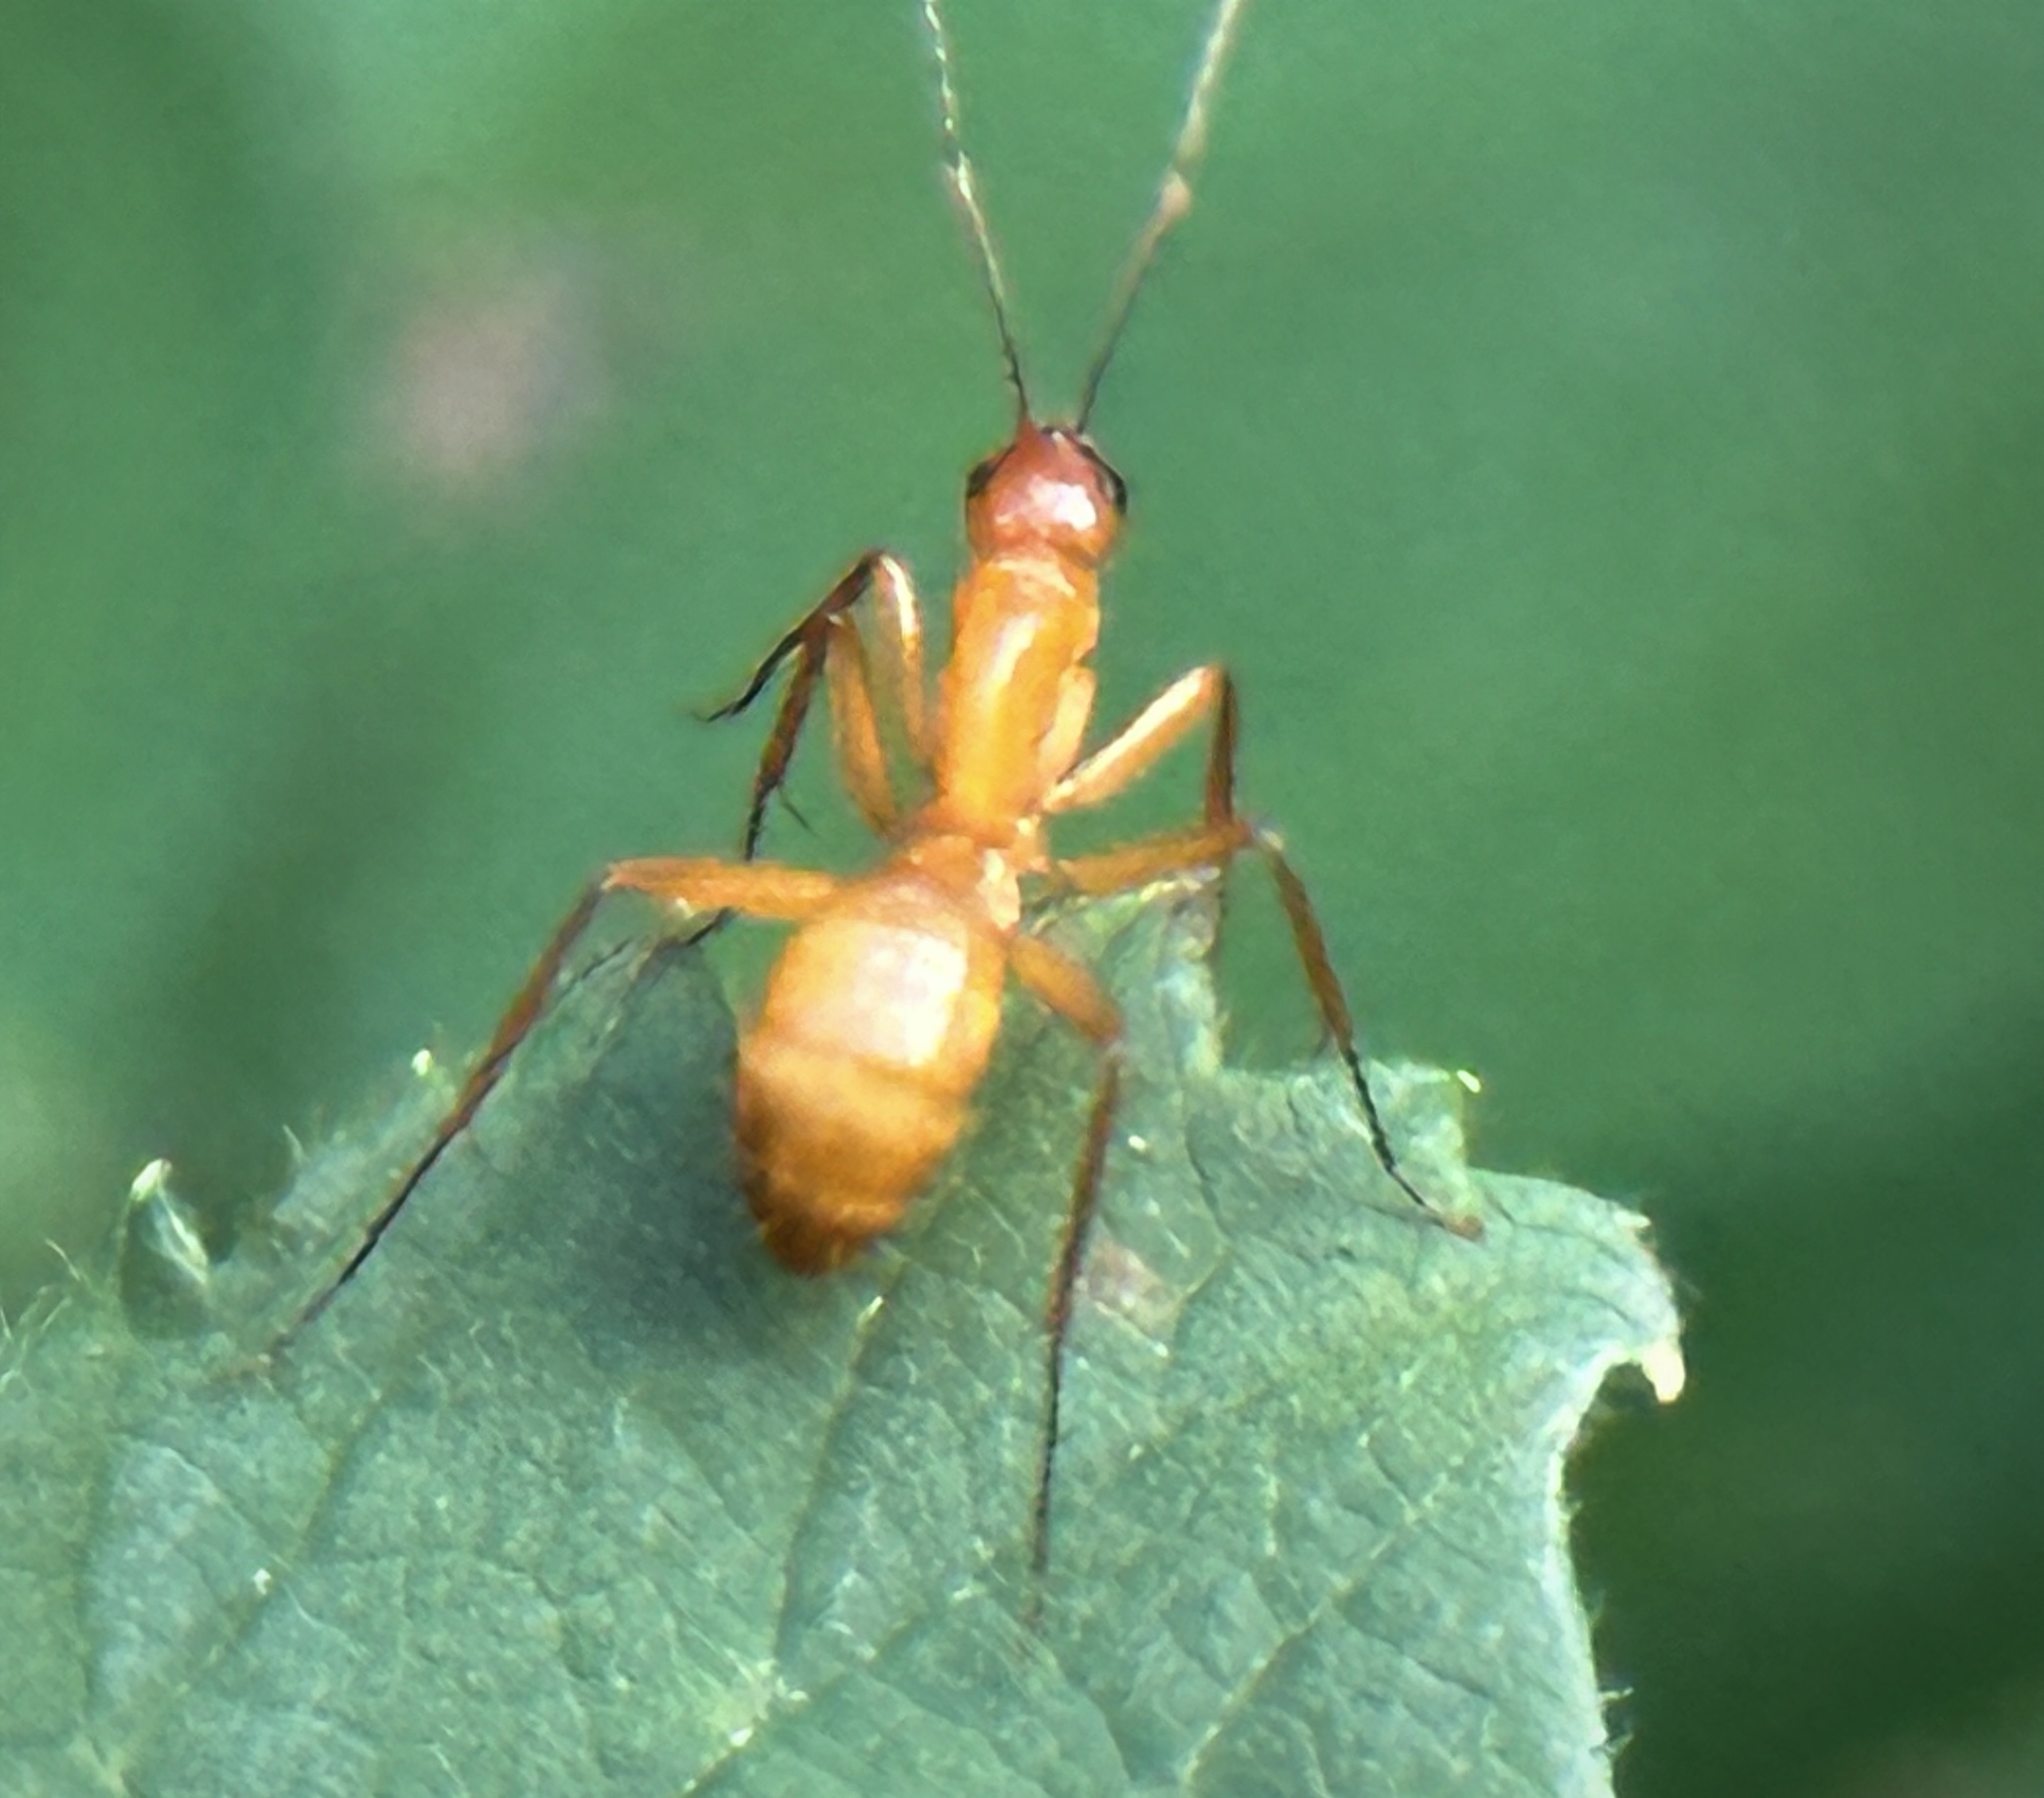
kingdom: Animalia
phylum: Arthropoda
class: Insecta
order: Hymenoptera
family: Formicidae
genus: Camponotus
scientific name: Camponotus castaneus
